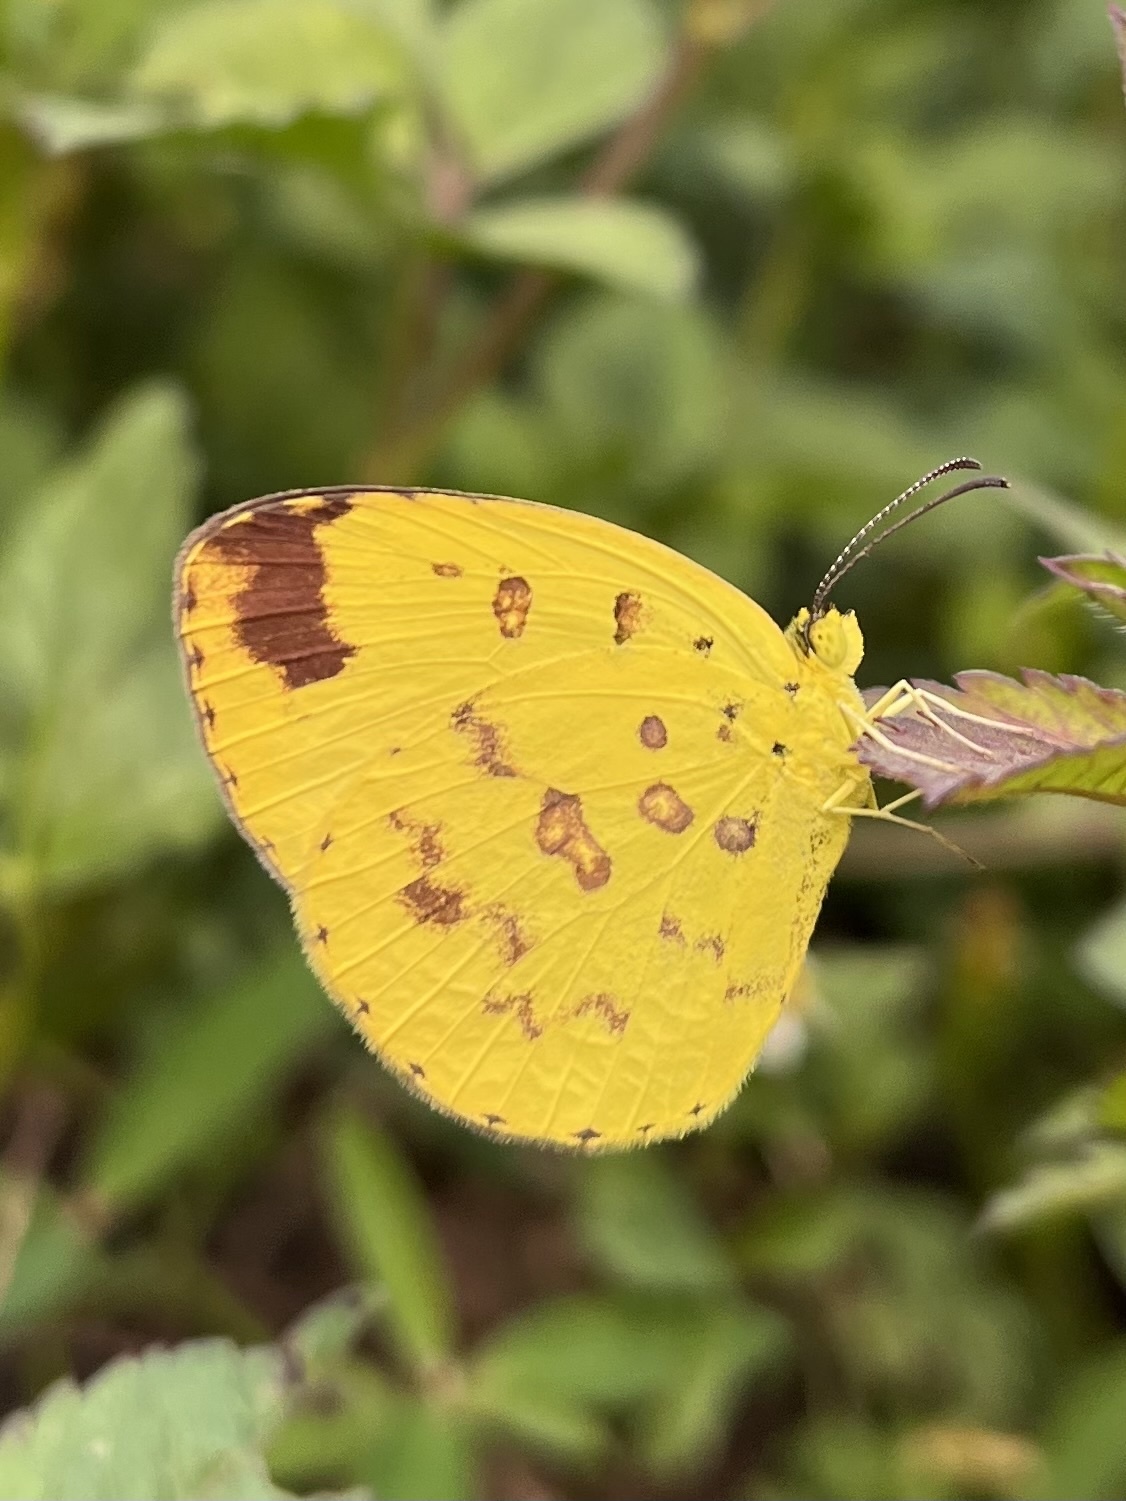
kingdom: Animalia
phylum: Arthropoda
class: Insecta
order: Lepidoptera
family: Pieridae
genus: Eurema
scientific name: Eurema hecabe
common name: Pale grass yellow
